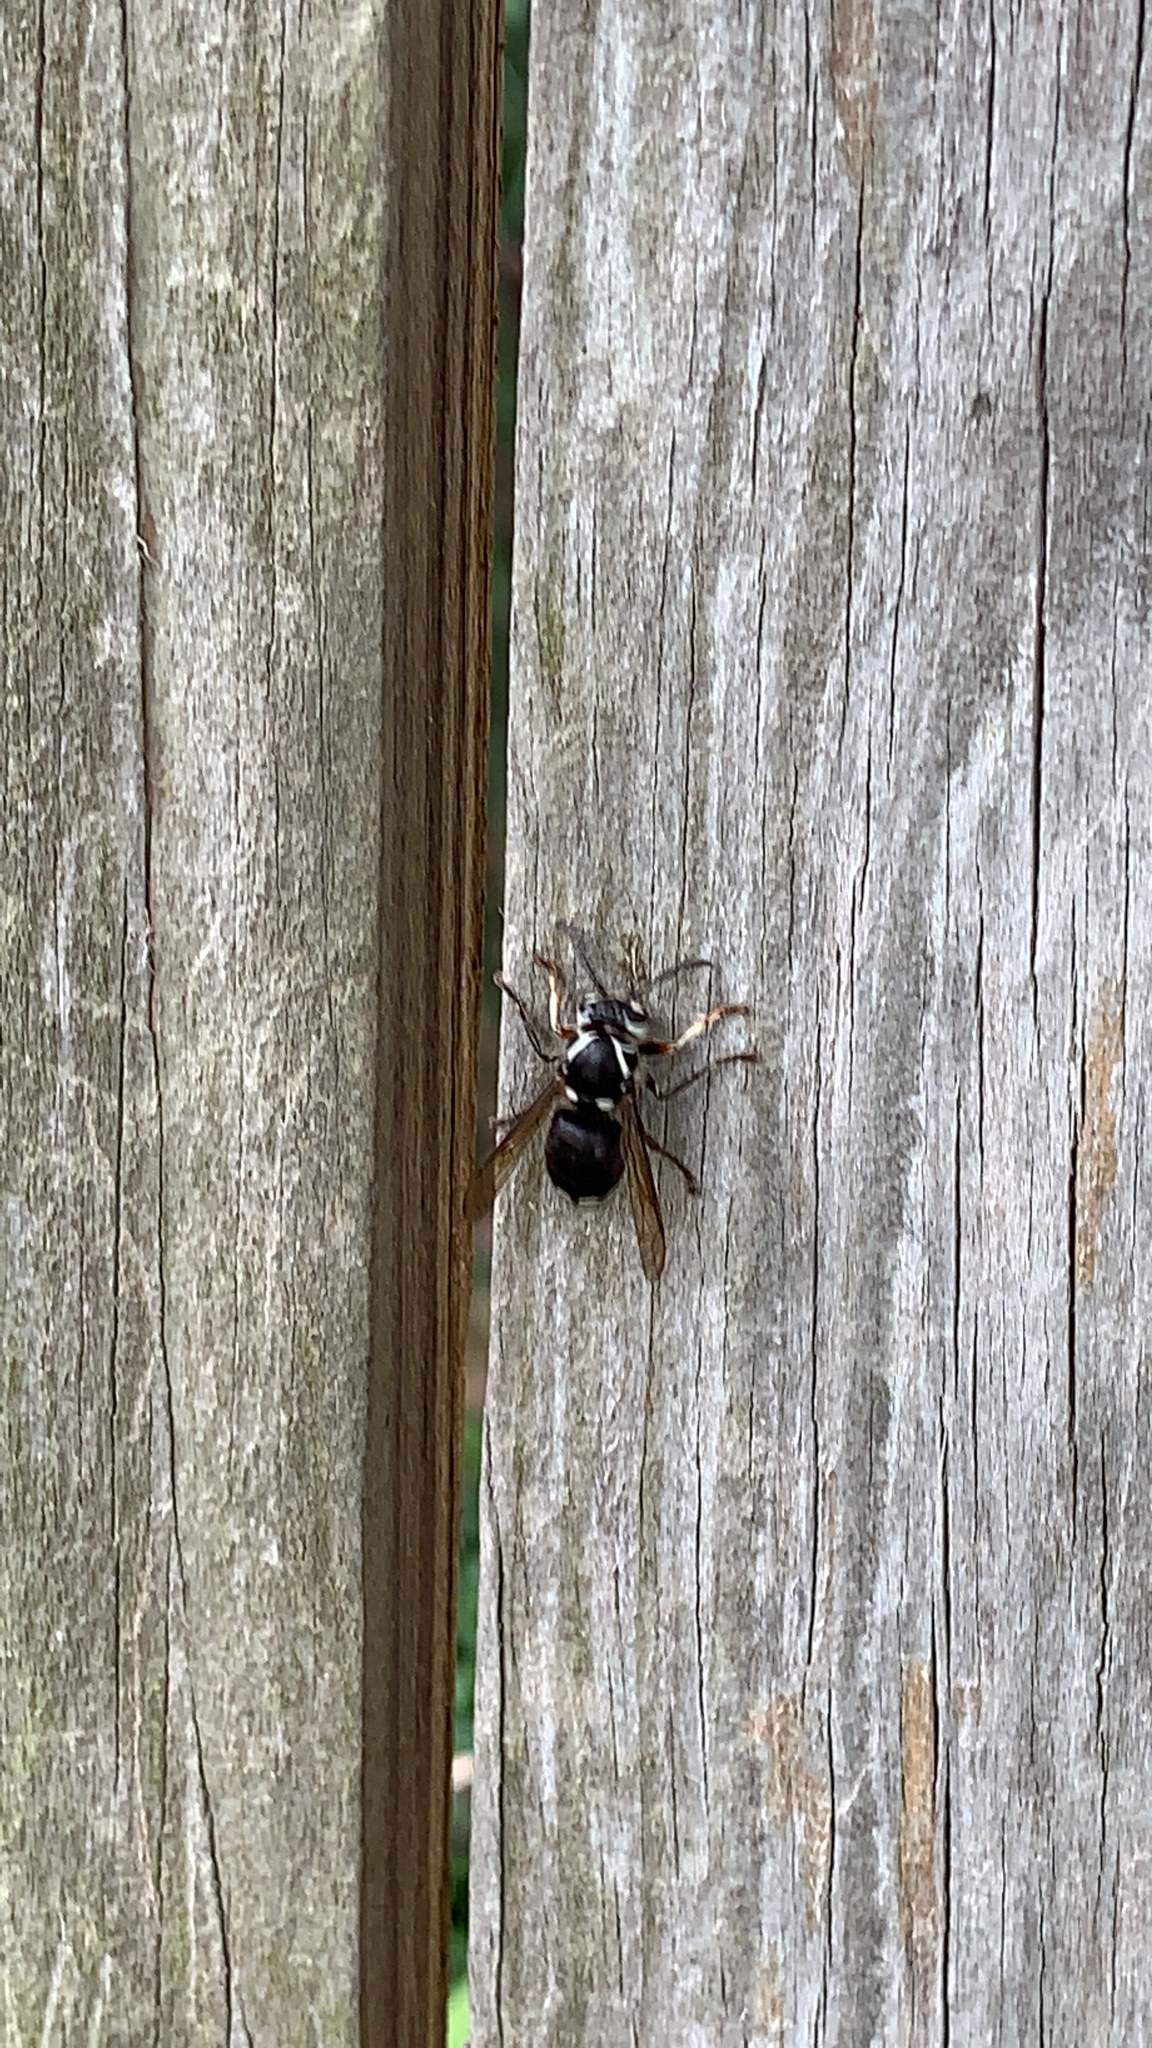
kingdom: Animalia
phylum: Arthropoda
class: Insecta
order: Hymenoptera
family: Vespidae
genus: Dolichovespula
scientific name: Dolichovespula maculata
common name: Bald-faced hornet
